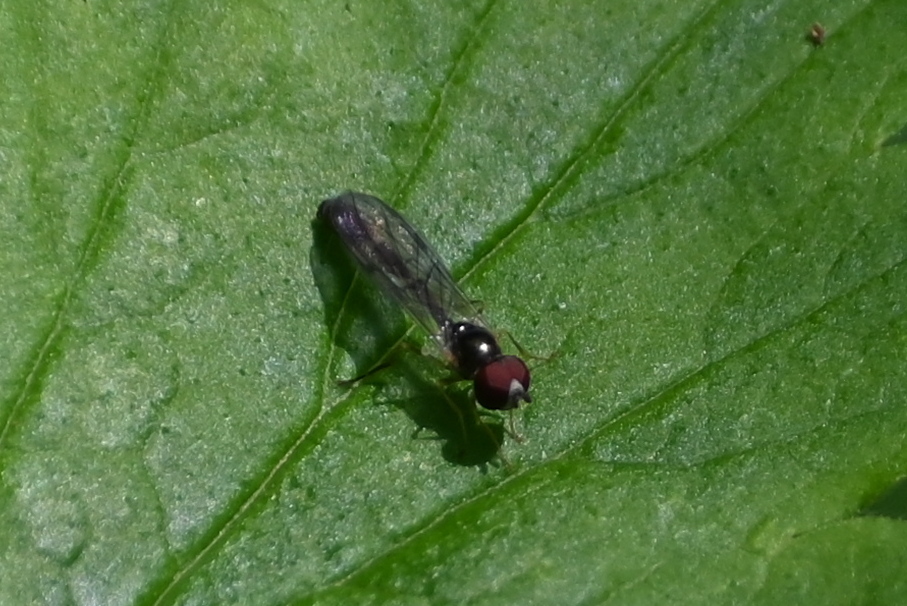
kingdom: Animalia
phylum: Arthropoda
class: Insecta
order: Diptera
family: Syrphidae
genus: Baccha
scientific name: Baccha elongata
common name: Common dainty
